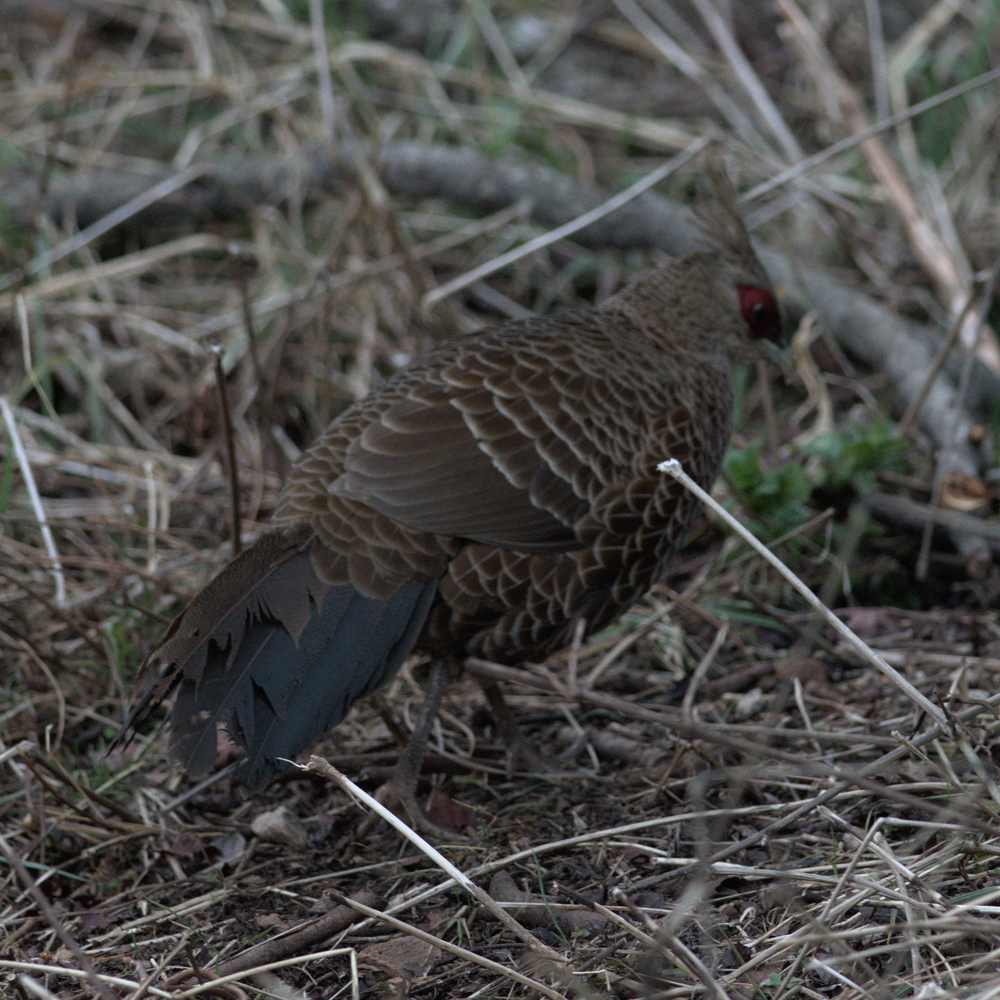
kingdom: Animalia
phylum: Chordata
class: Aves
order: Galliformes
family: Phasianidae
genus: Lophura
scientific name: Lophura leucomelanos
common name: Kalij pheasant
